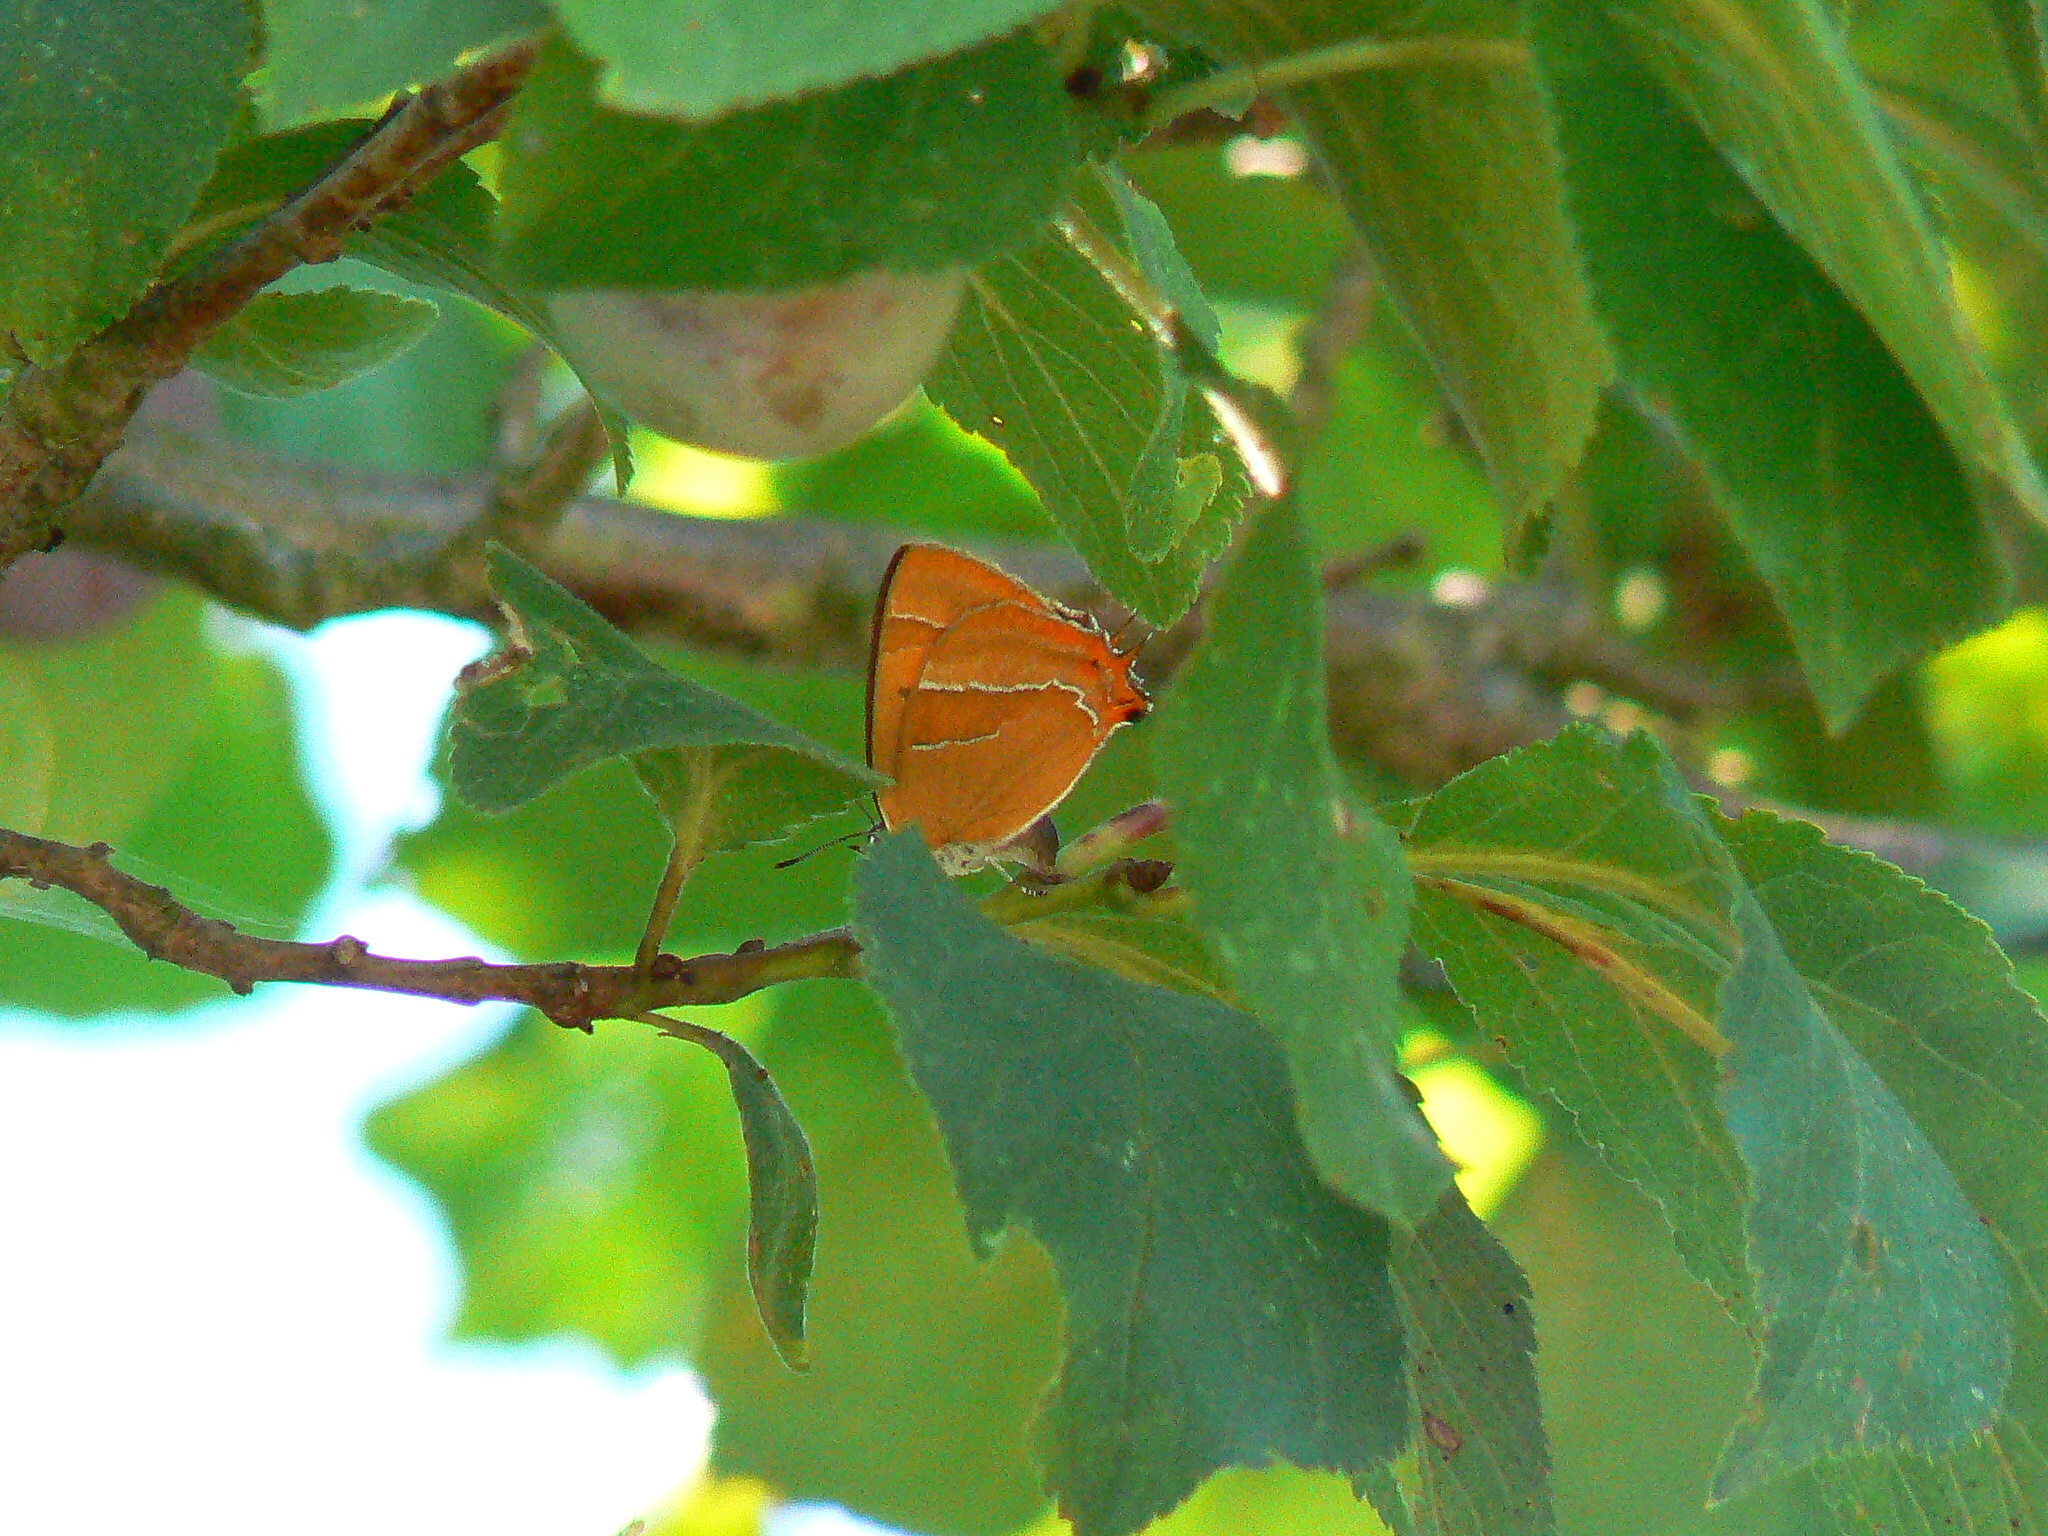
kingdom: Animalia
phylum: Arthropoda
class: Insecta
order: Lepidoptera
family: Lycaenidae
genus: Thecla
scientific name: Thecla betulae
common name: Brown hairstreak
